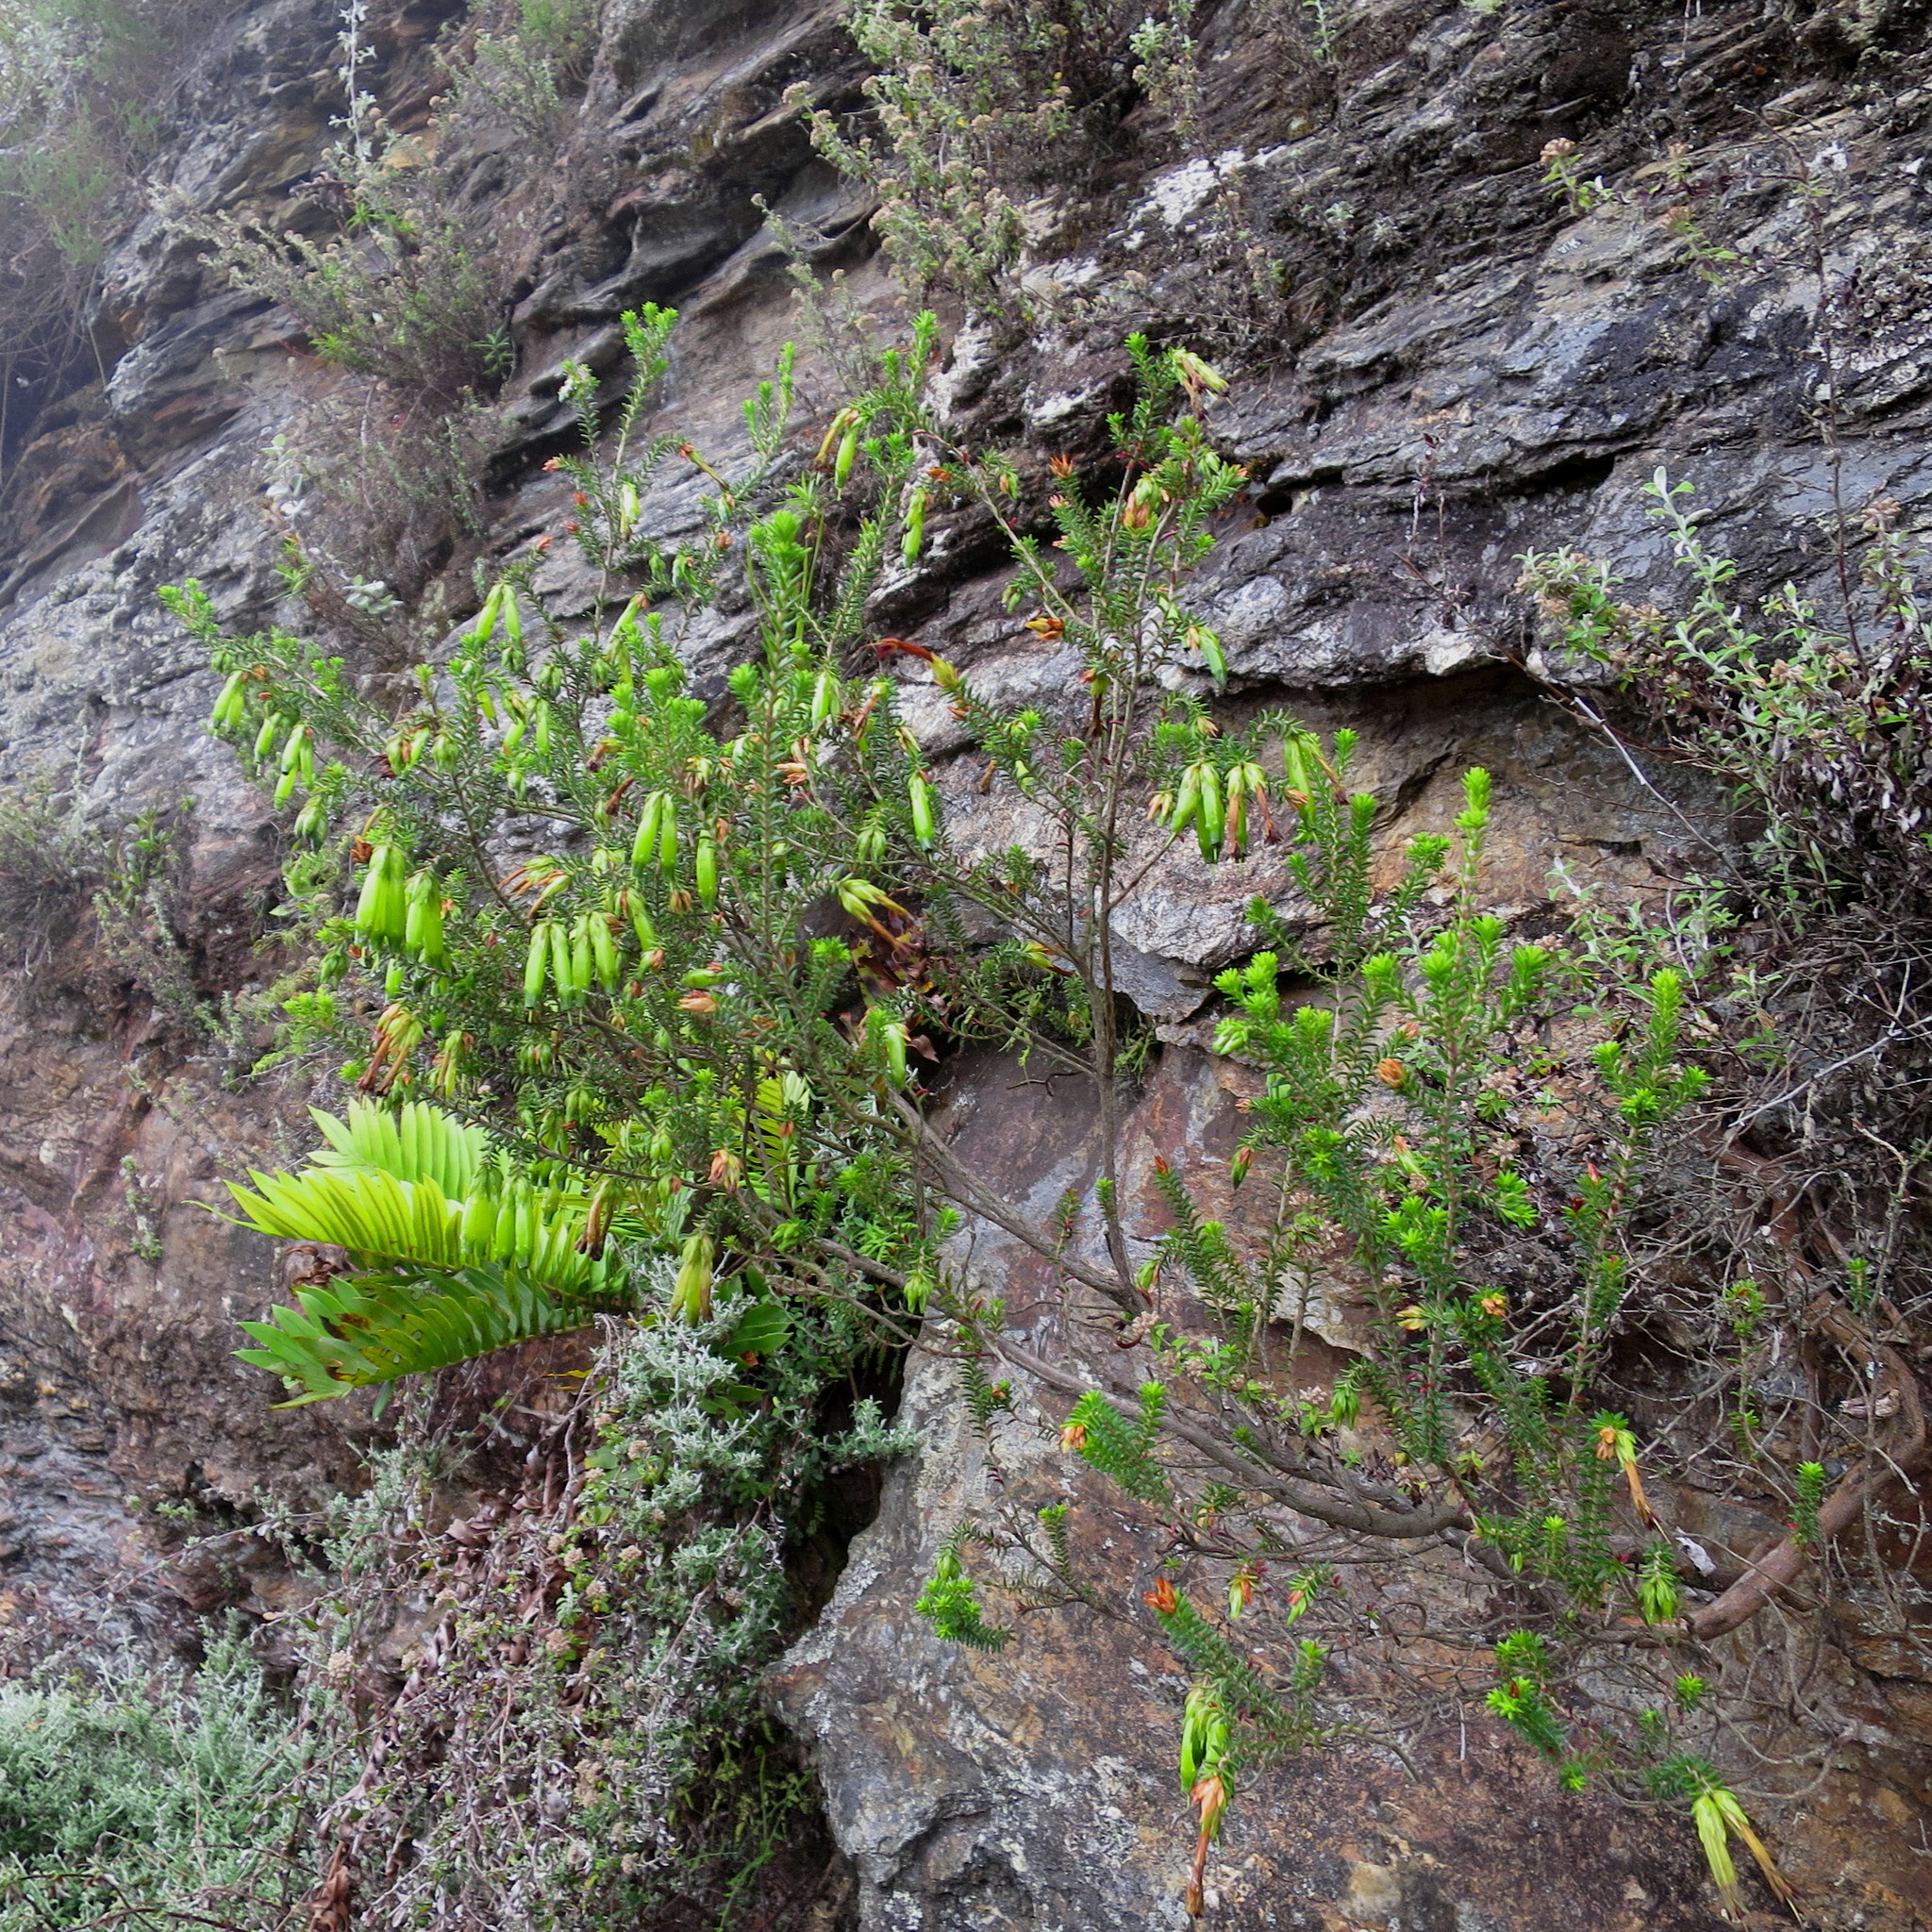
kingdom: Plantae
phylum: Tracheophyta
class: Magnoliopsida
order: Ericales
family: Ericaceae
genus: Erica
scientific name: Erica viridiflora
